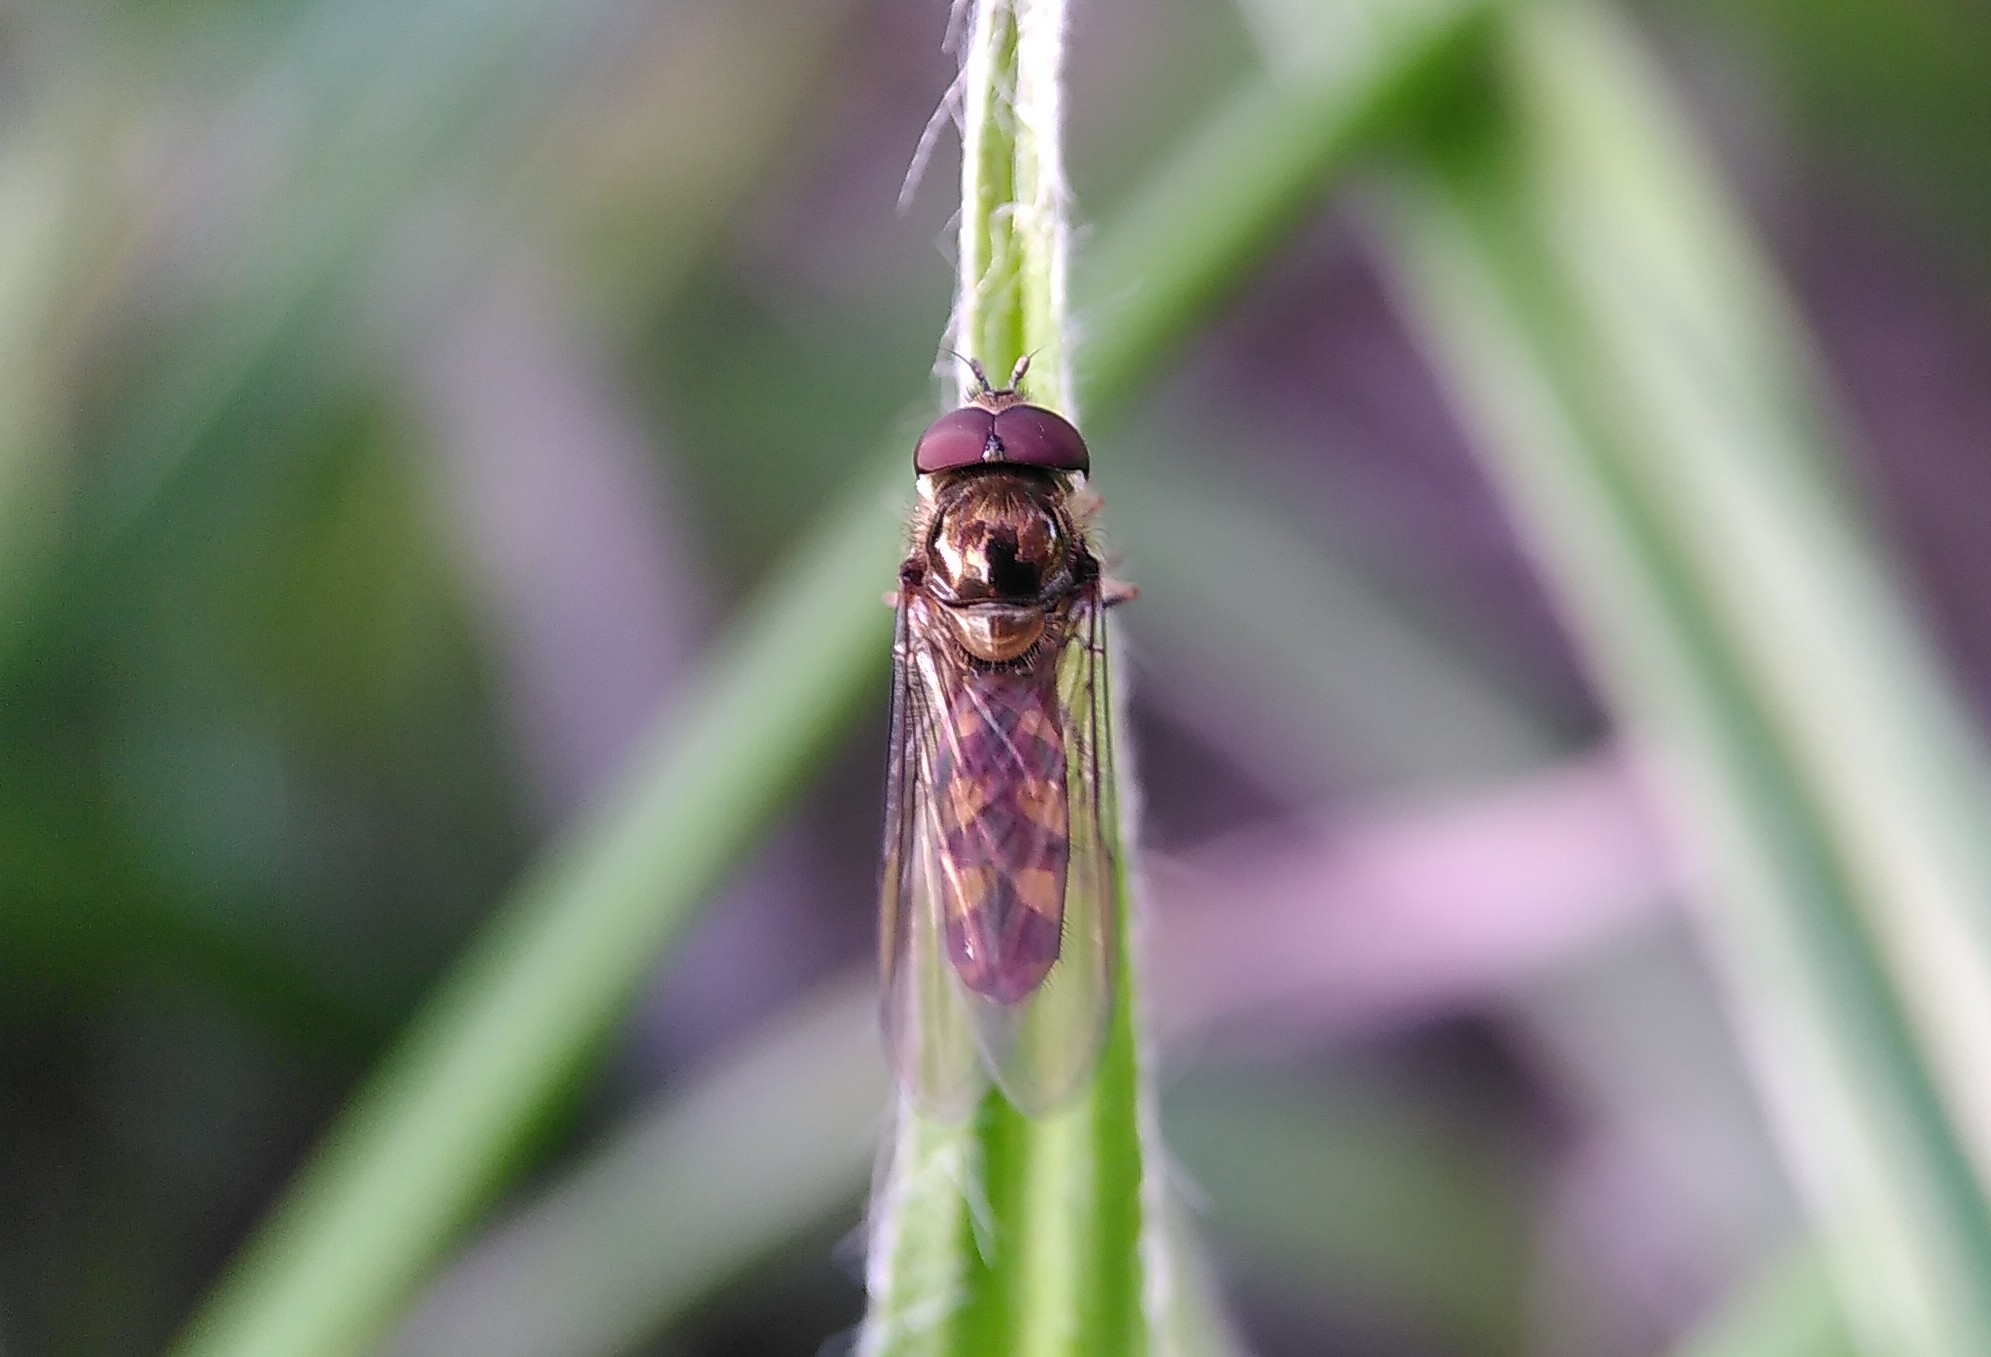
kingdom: Animalia
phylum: Arthropoda
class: Insecta
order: Diptera
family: Syrphidae
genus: Meliscaeva
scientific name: Meliscaeva auricollis
